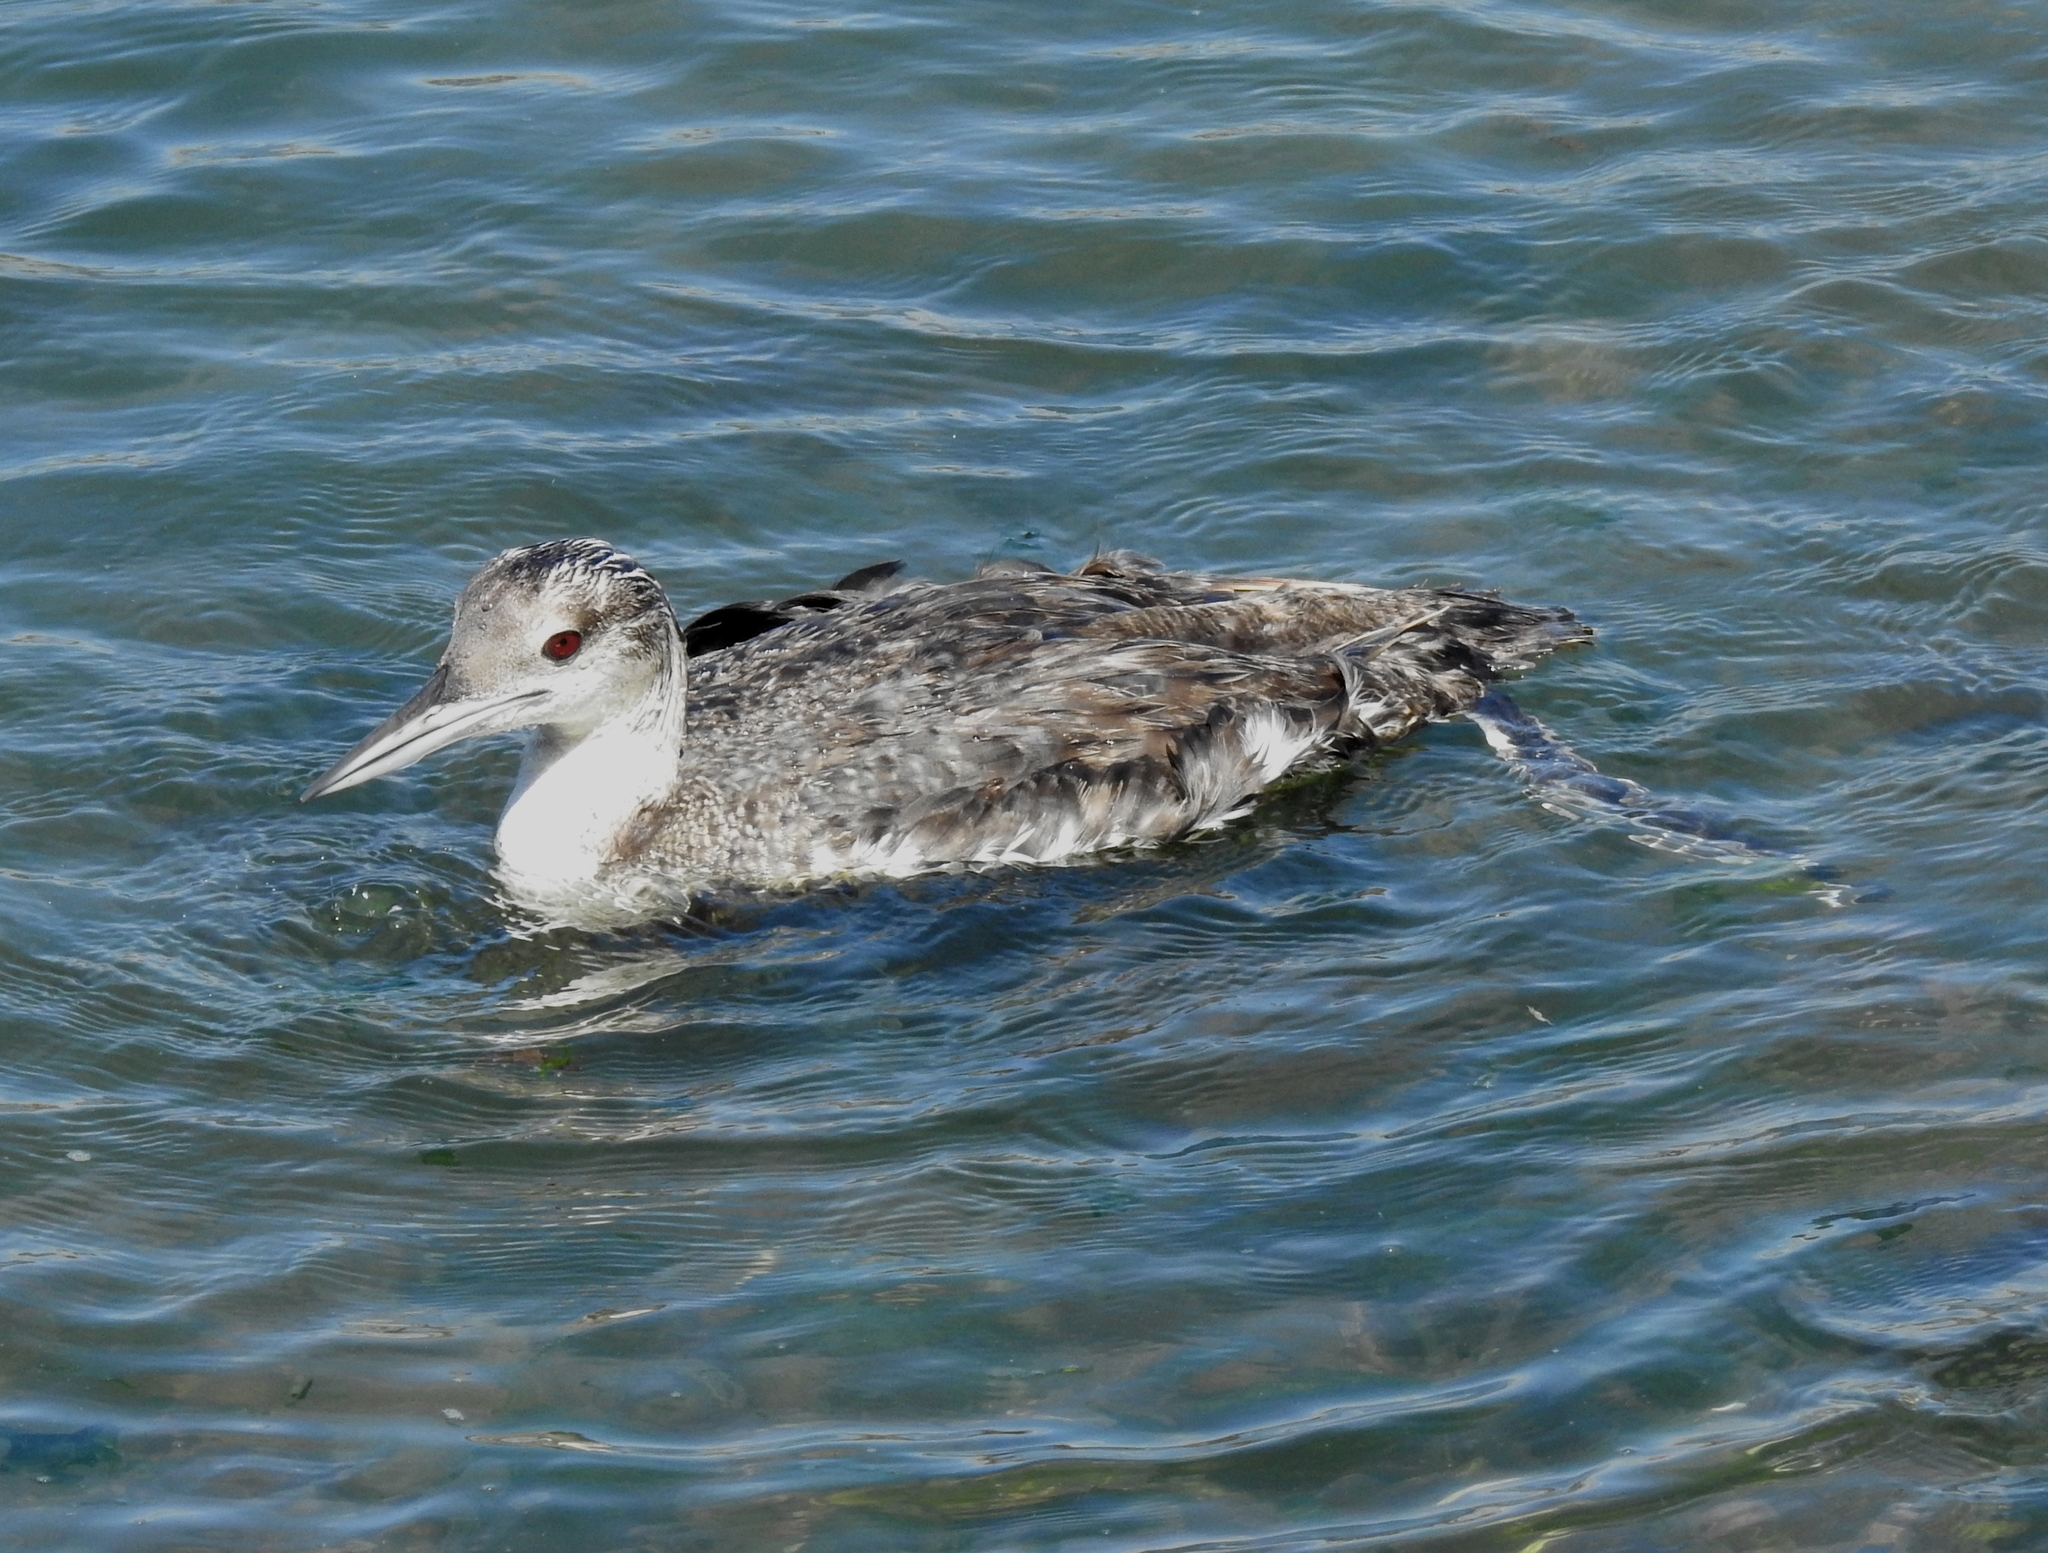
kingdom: Animalia
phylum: Chordata
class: Aves
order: Gaviiformes
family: Gaviidae
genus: Gavia
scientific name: Gavia immer
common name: Common loon
